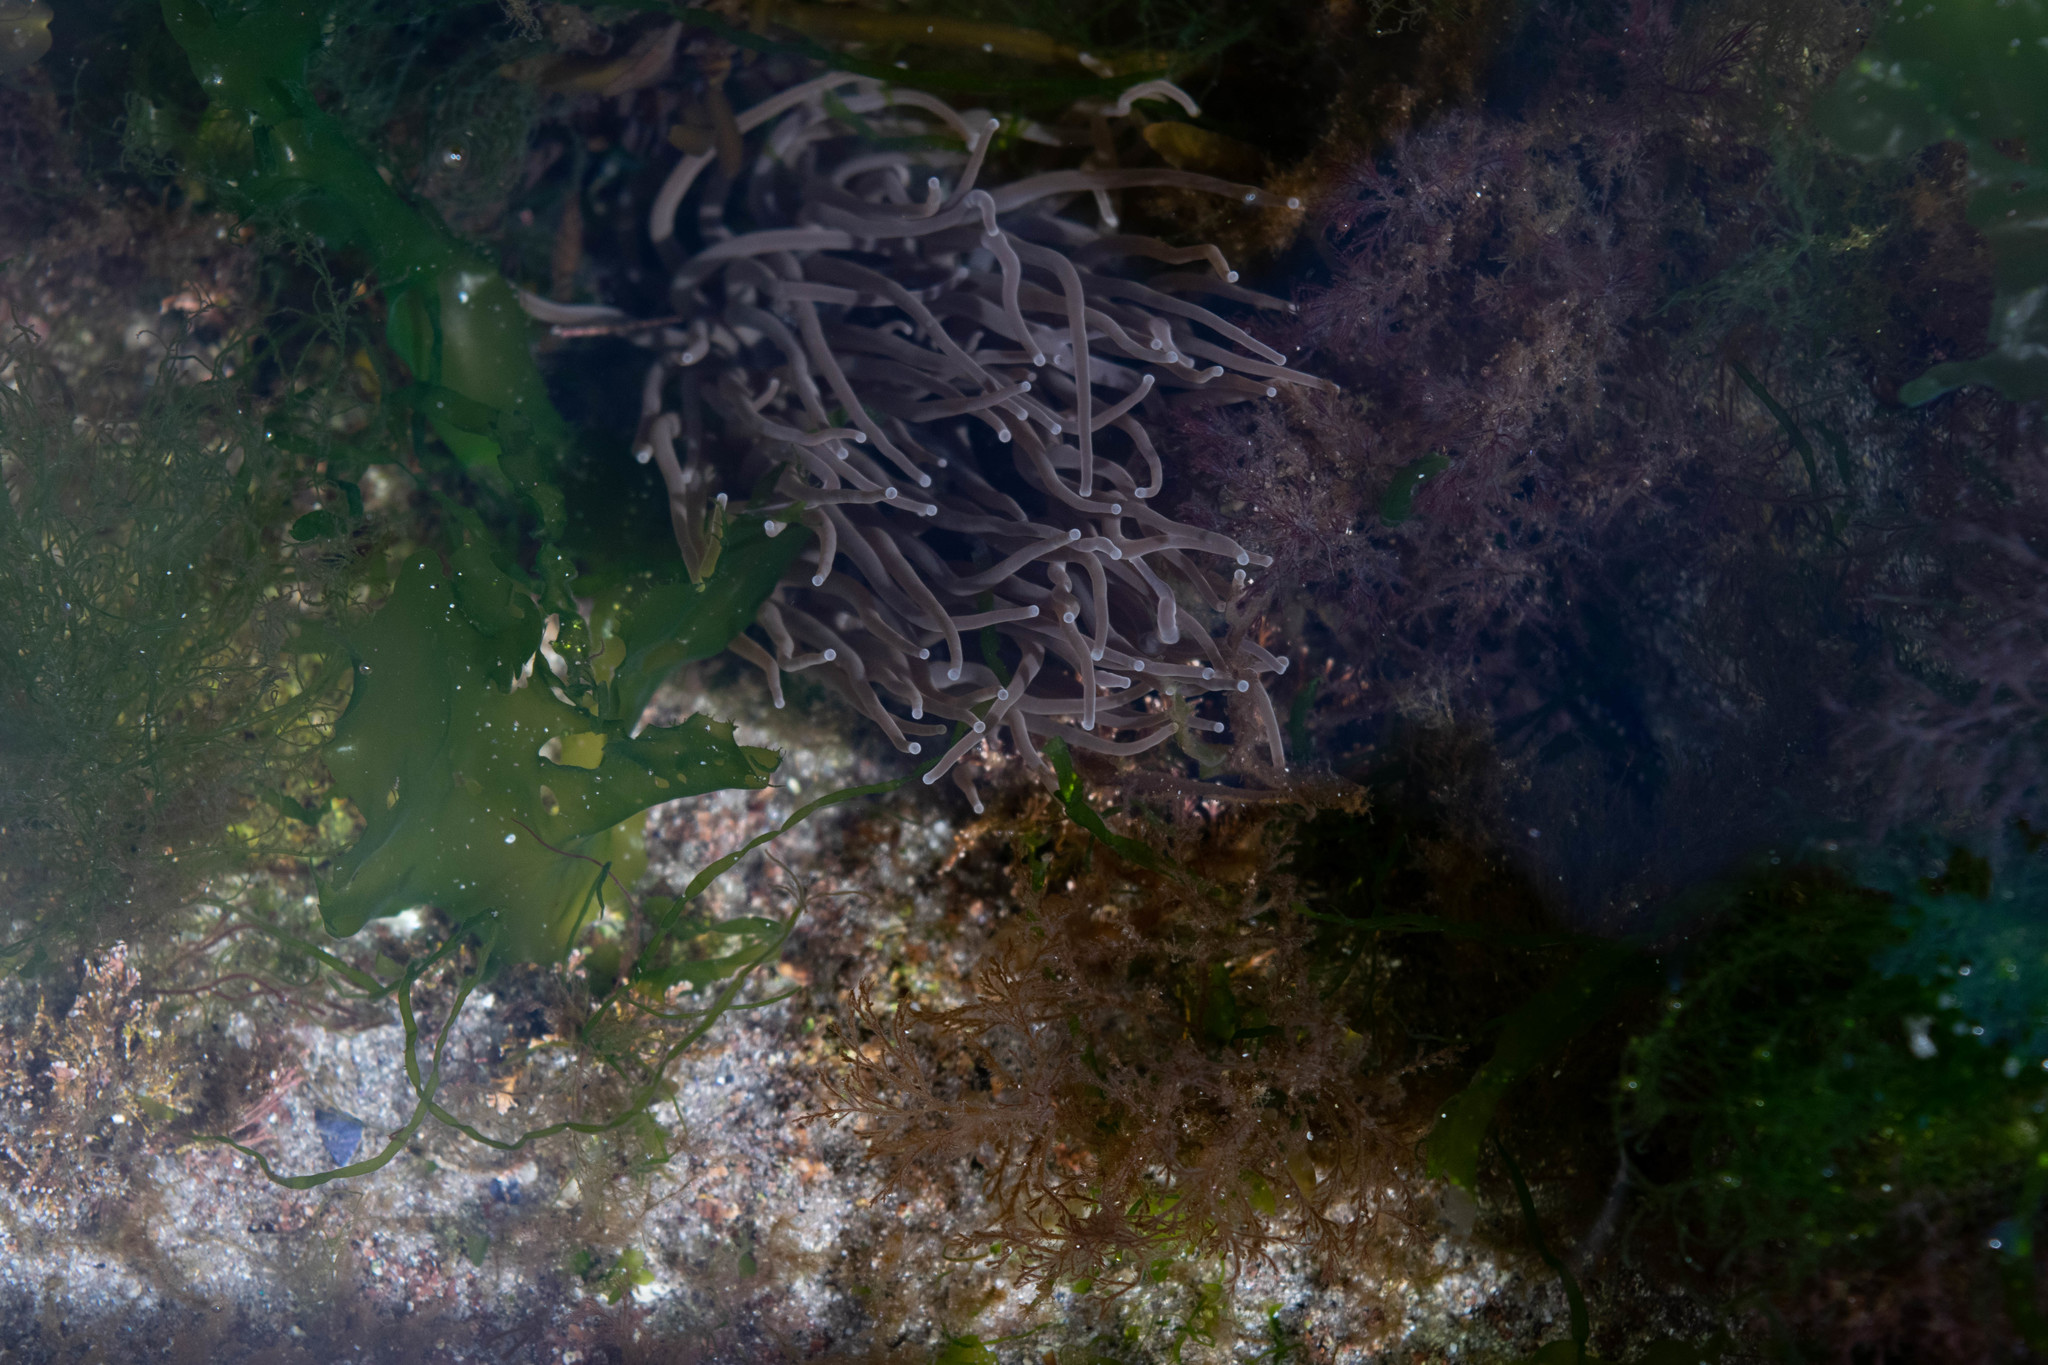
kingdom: Animalia
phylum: Cnidaria
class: Anthozoa
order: Actiniaria
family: Actiniidae
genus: Anemonia
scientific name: Anemonia viridis
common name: Snakelocks anemone
